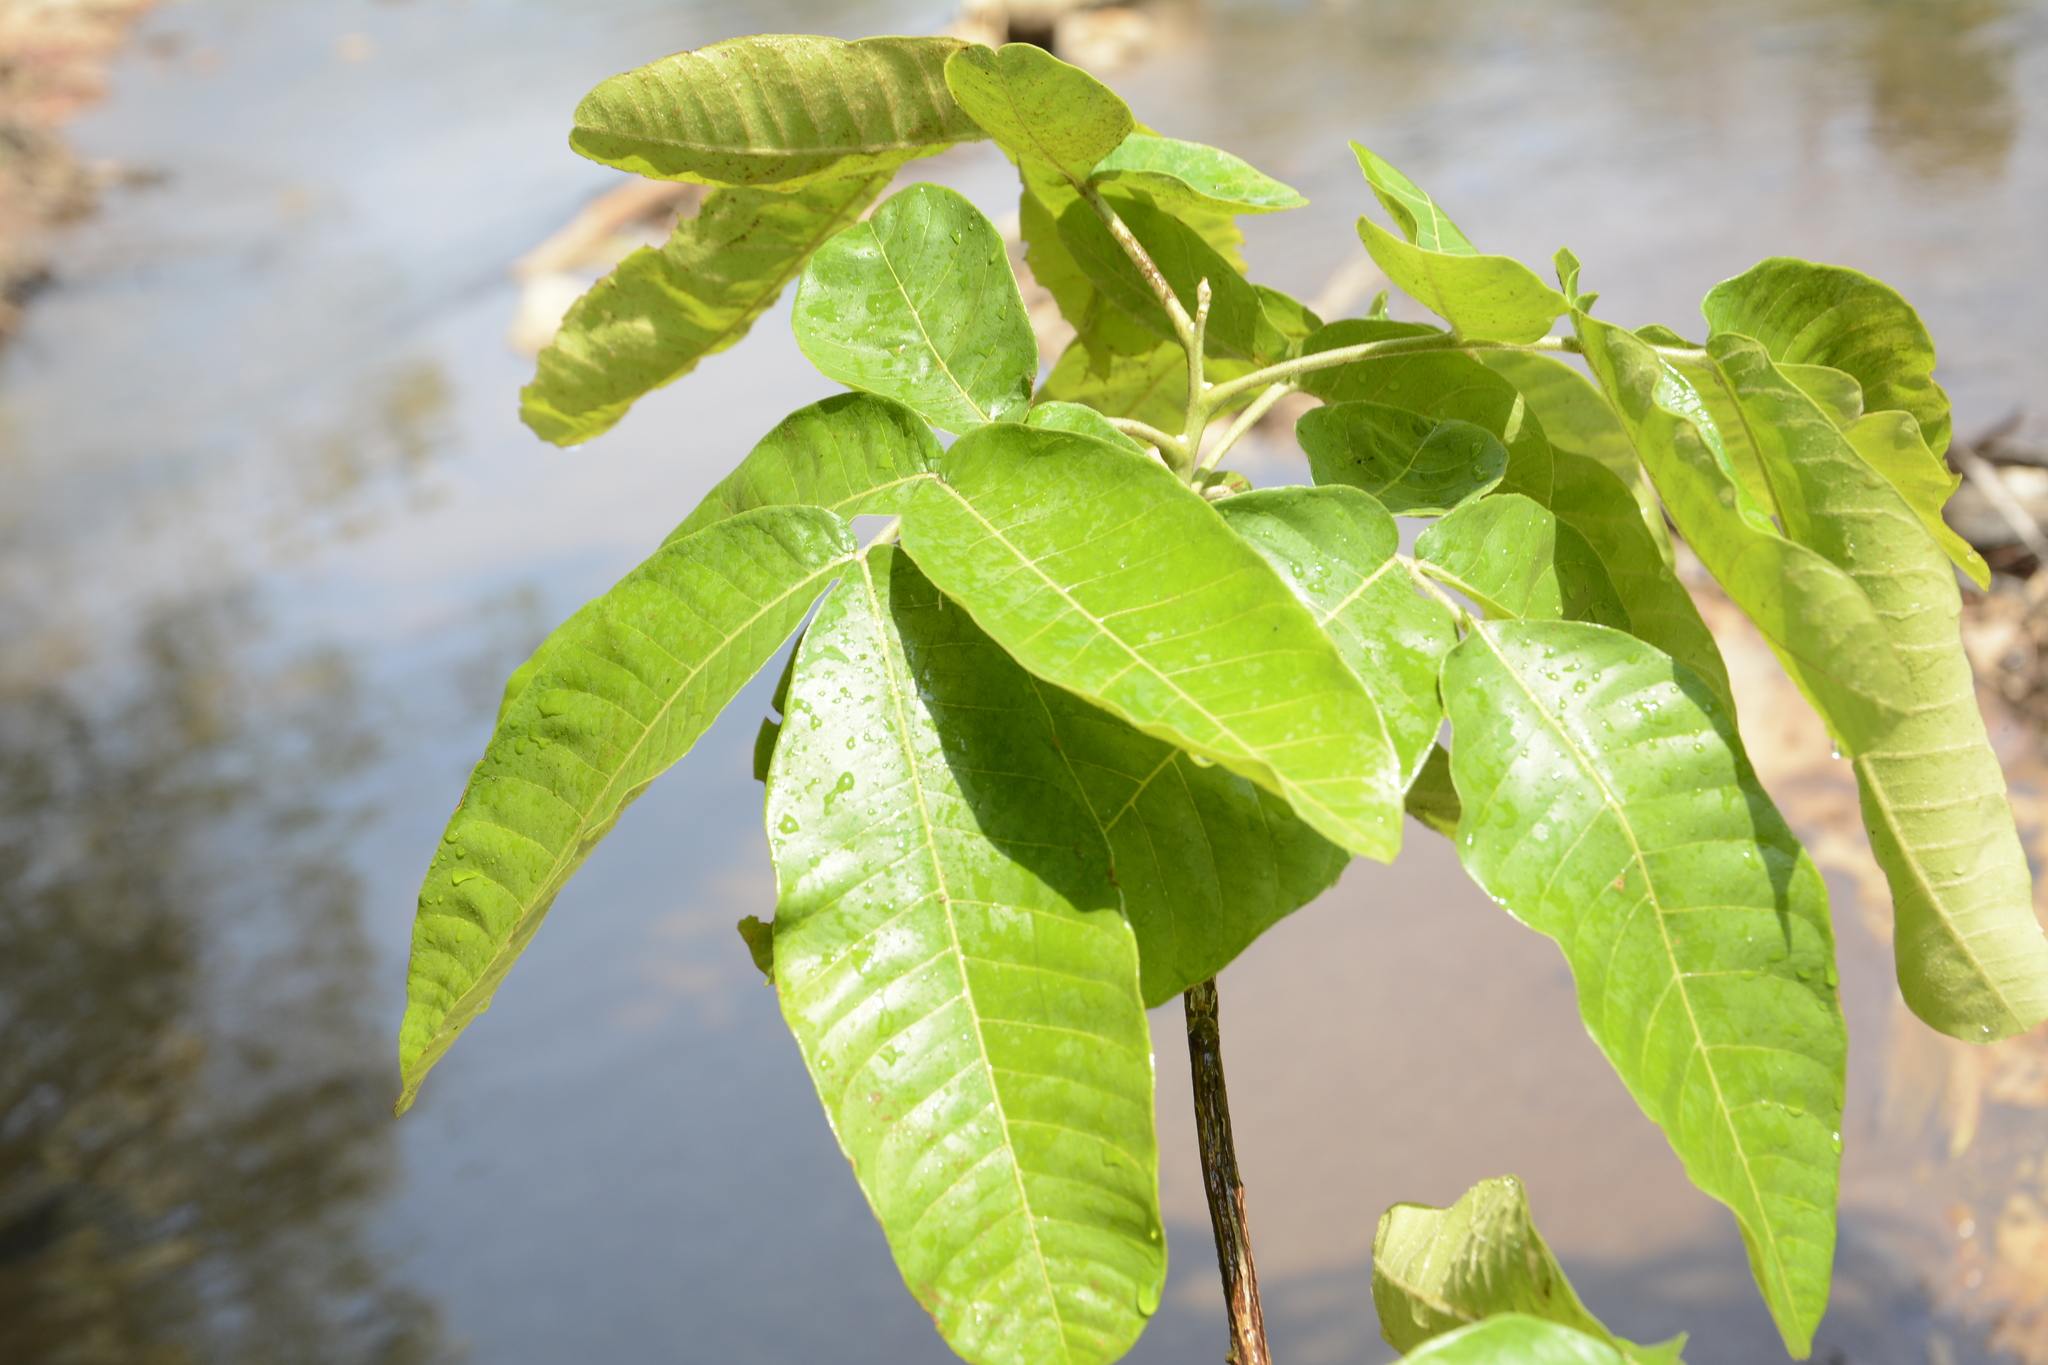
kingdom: Plantae
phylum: Tracheophyta
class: Magnoliopsida
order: Sapindales
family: Sapindaceae
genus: Schleichera
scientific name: Schleichera oleosa
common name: Malay lactree
